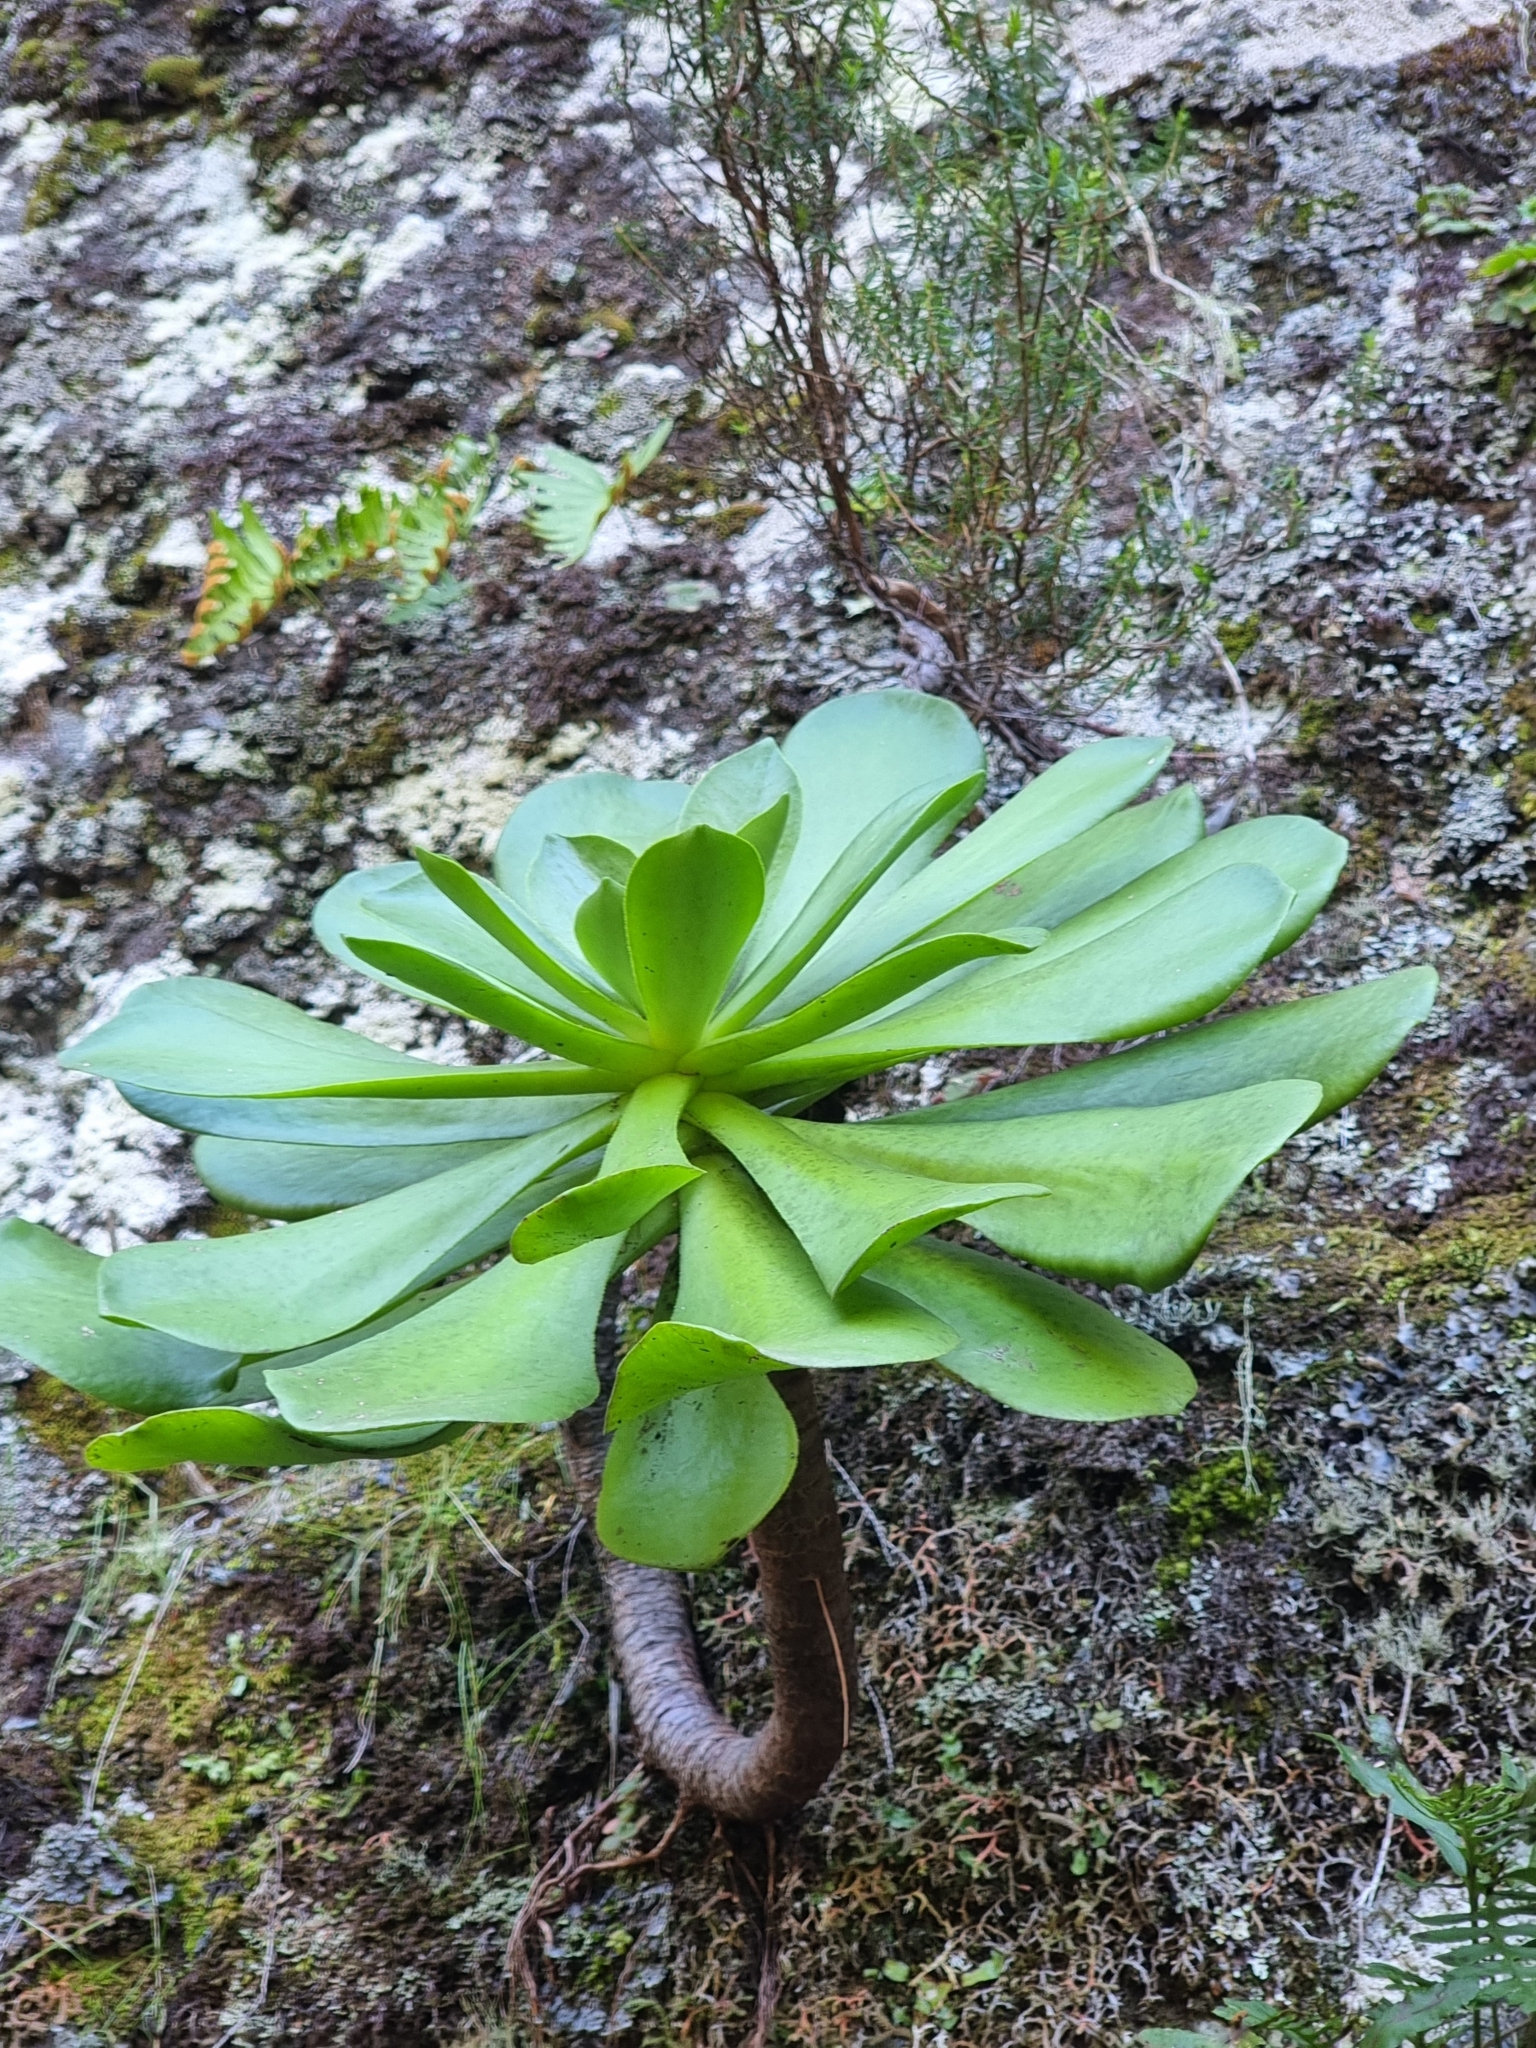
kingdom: Plantae
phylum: Tracheophyta
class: Magnoliopsida
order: Saxifragales
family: Crassulaceae
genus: Aeonium
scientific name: Aeonium glutinosum
